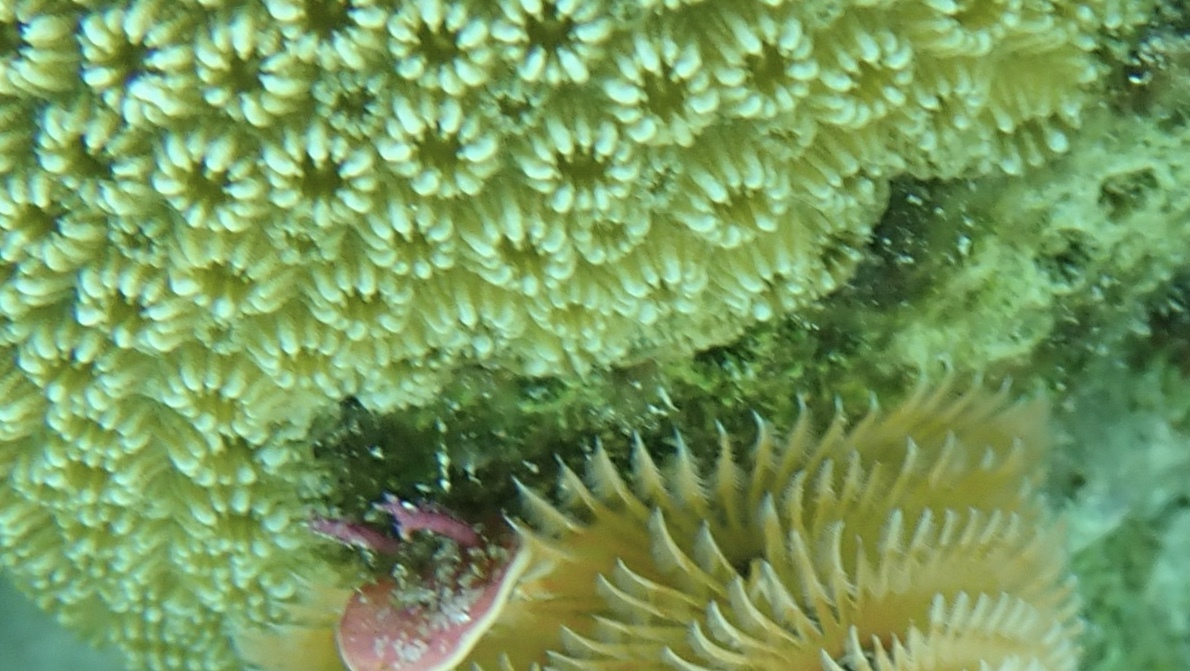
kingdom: Animalia
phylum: Cnidaria
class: Anthozoa
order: Scleractinia
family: Merulinidae
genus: Orbicella
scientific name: Orbicella annularis
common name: Boulder star coral
